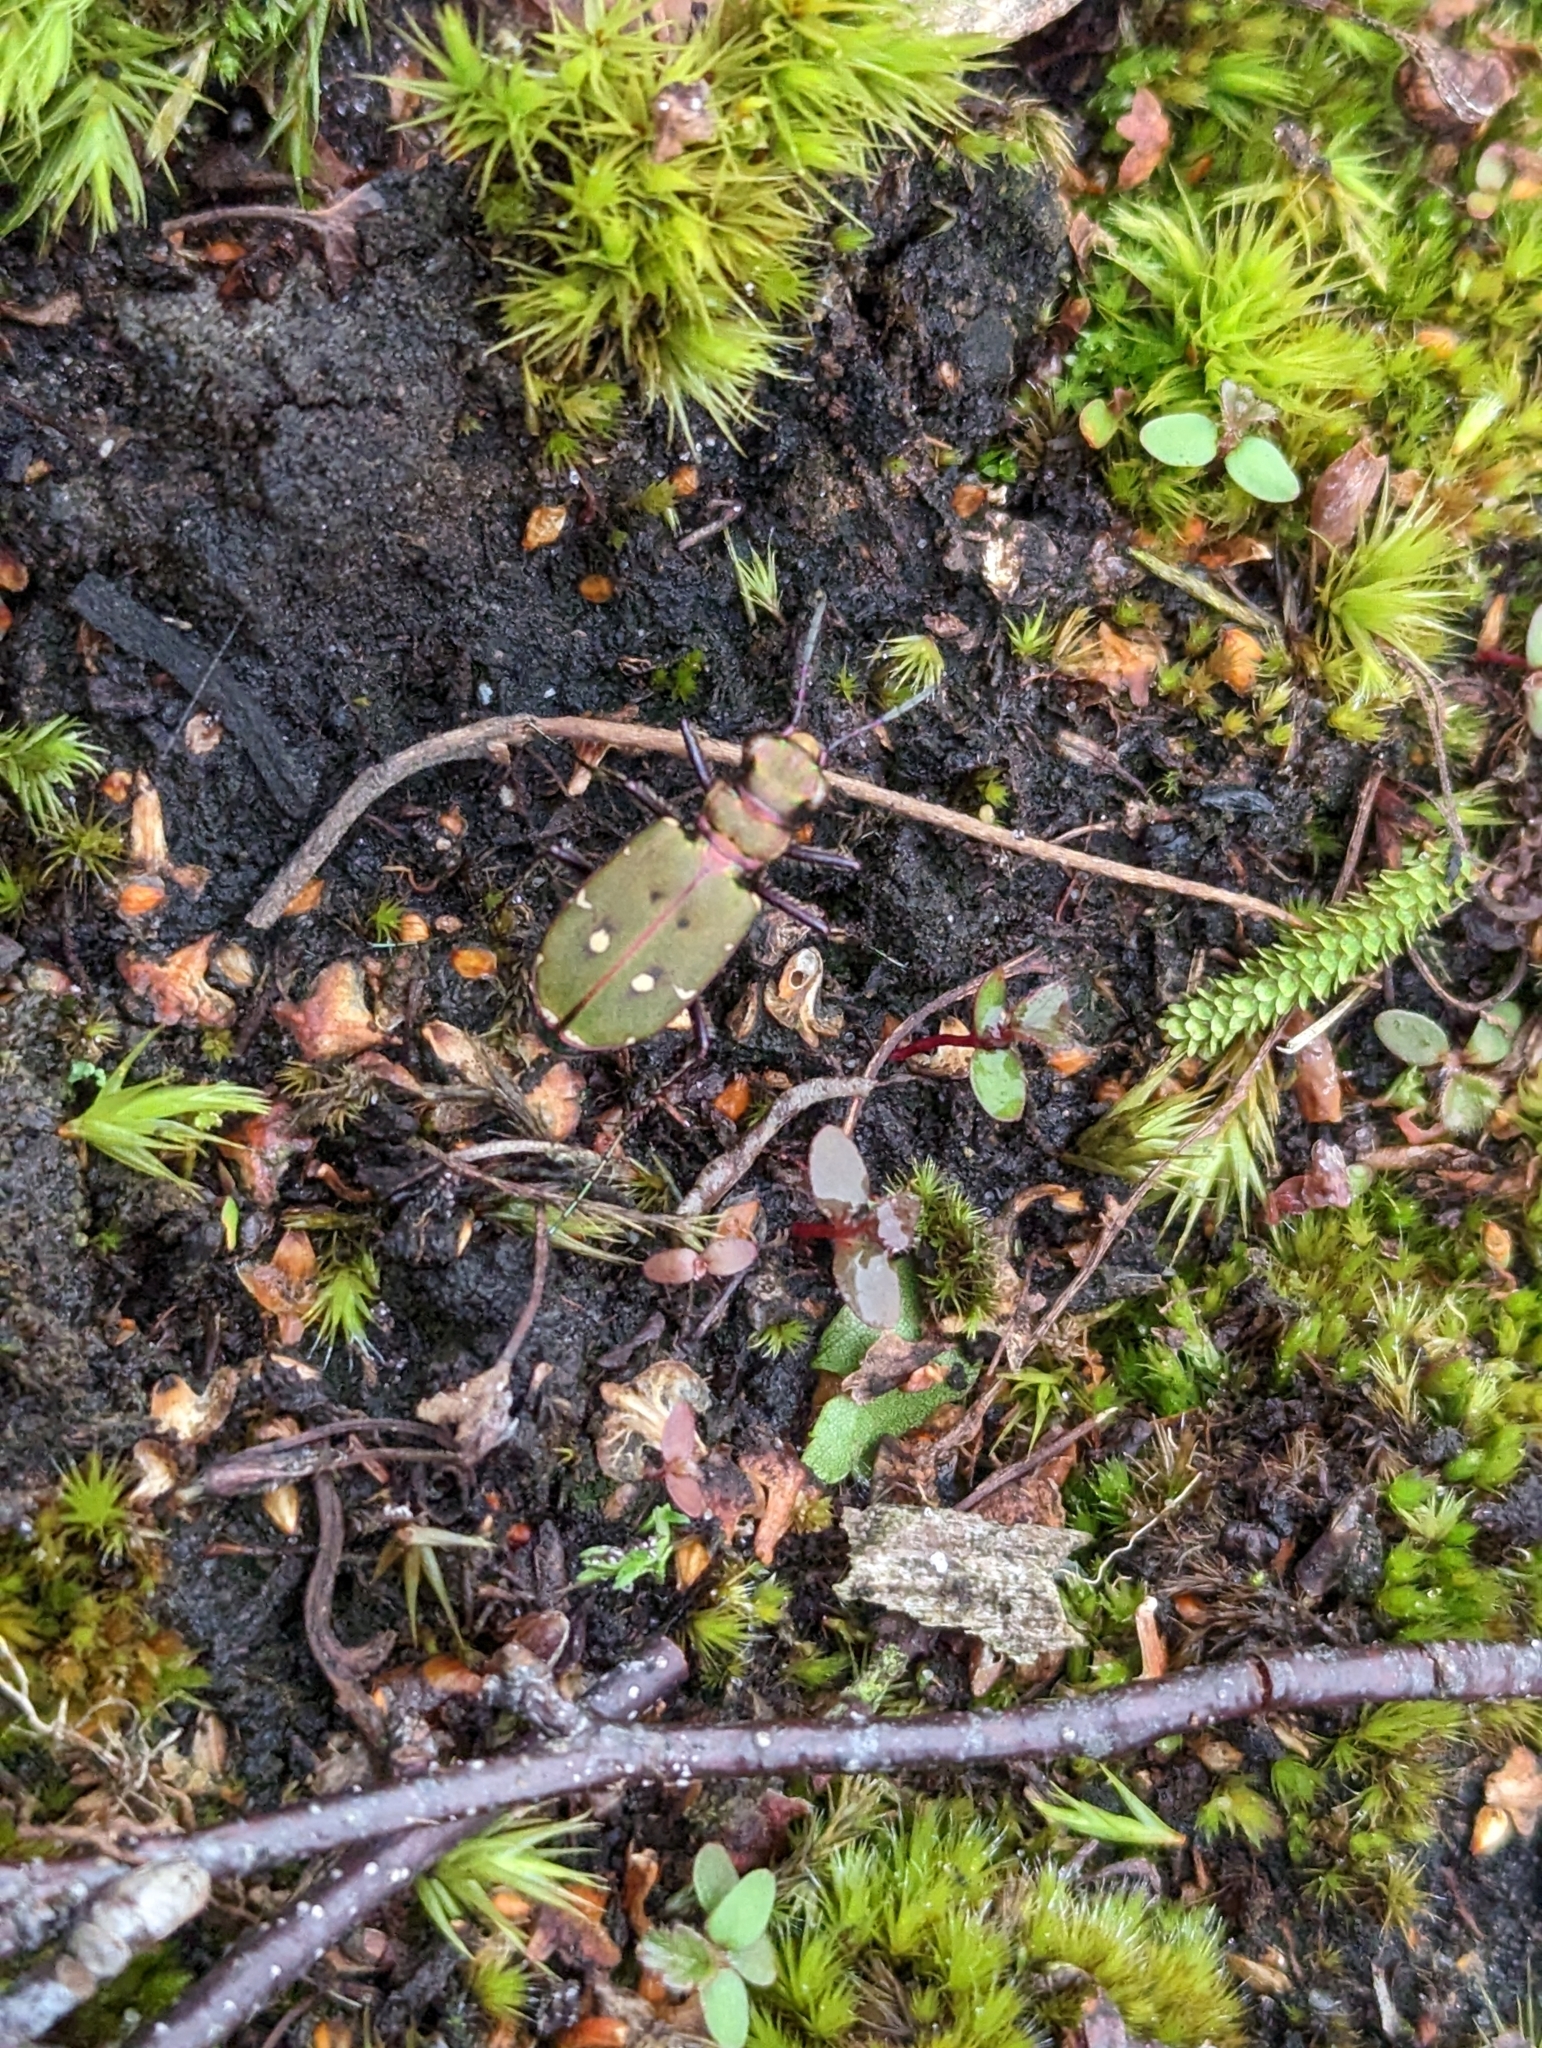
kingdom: Animalia
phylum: Arthropoda
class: Insecta
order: Coleoptera
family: Carabidae
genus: Cicindela
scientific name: Cicindela campestris
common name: Common tiger beetle
